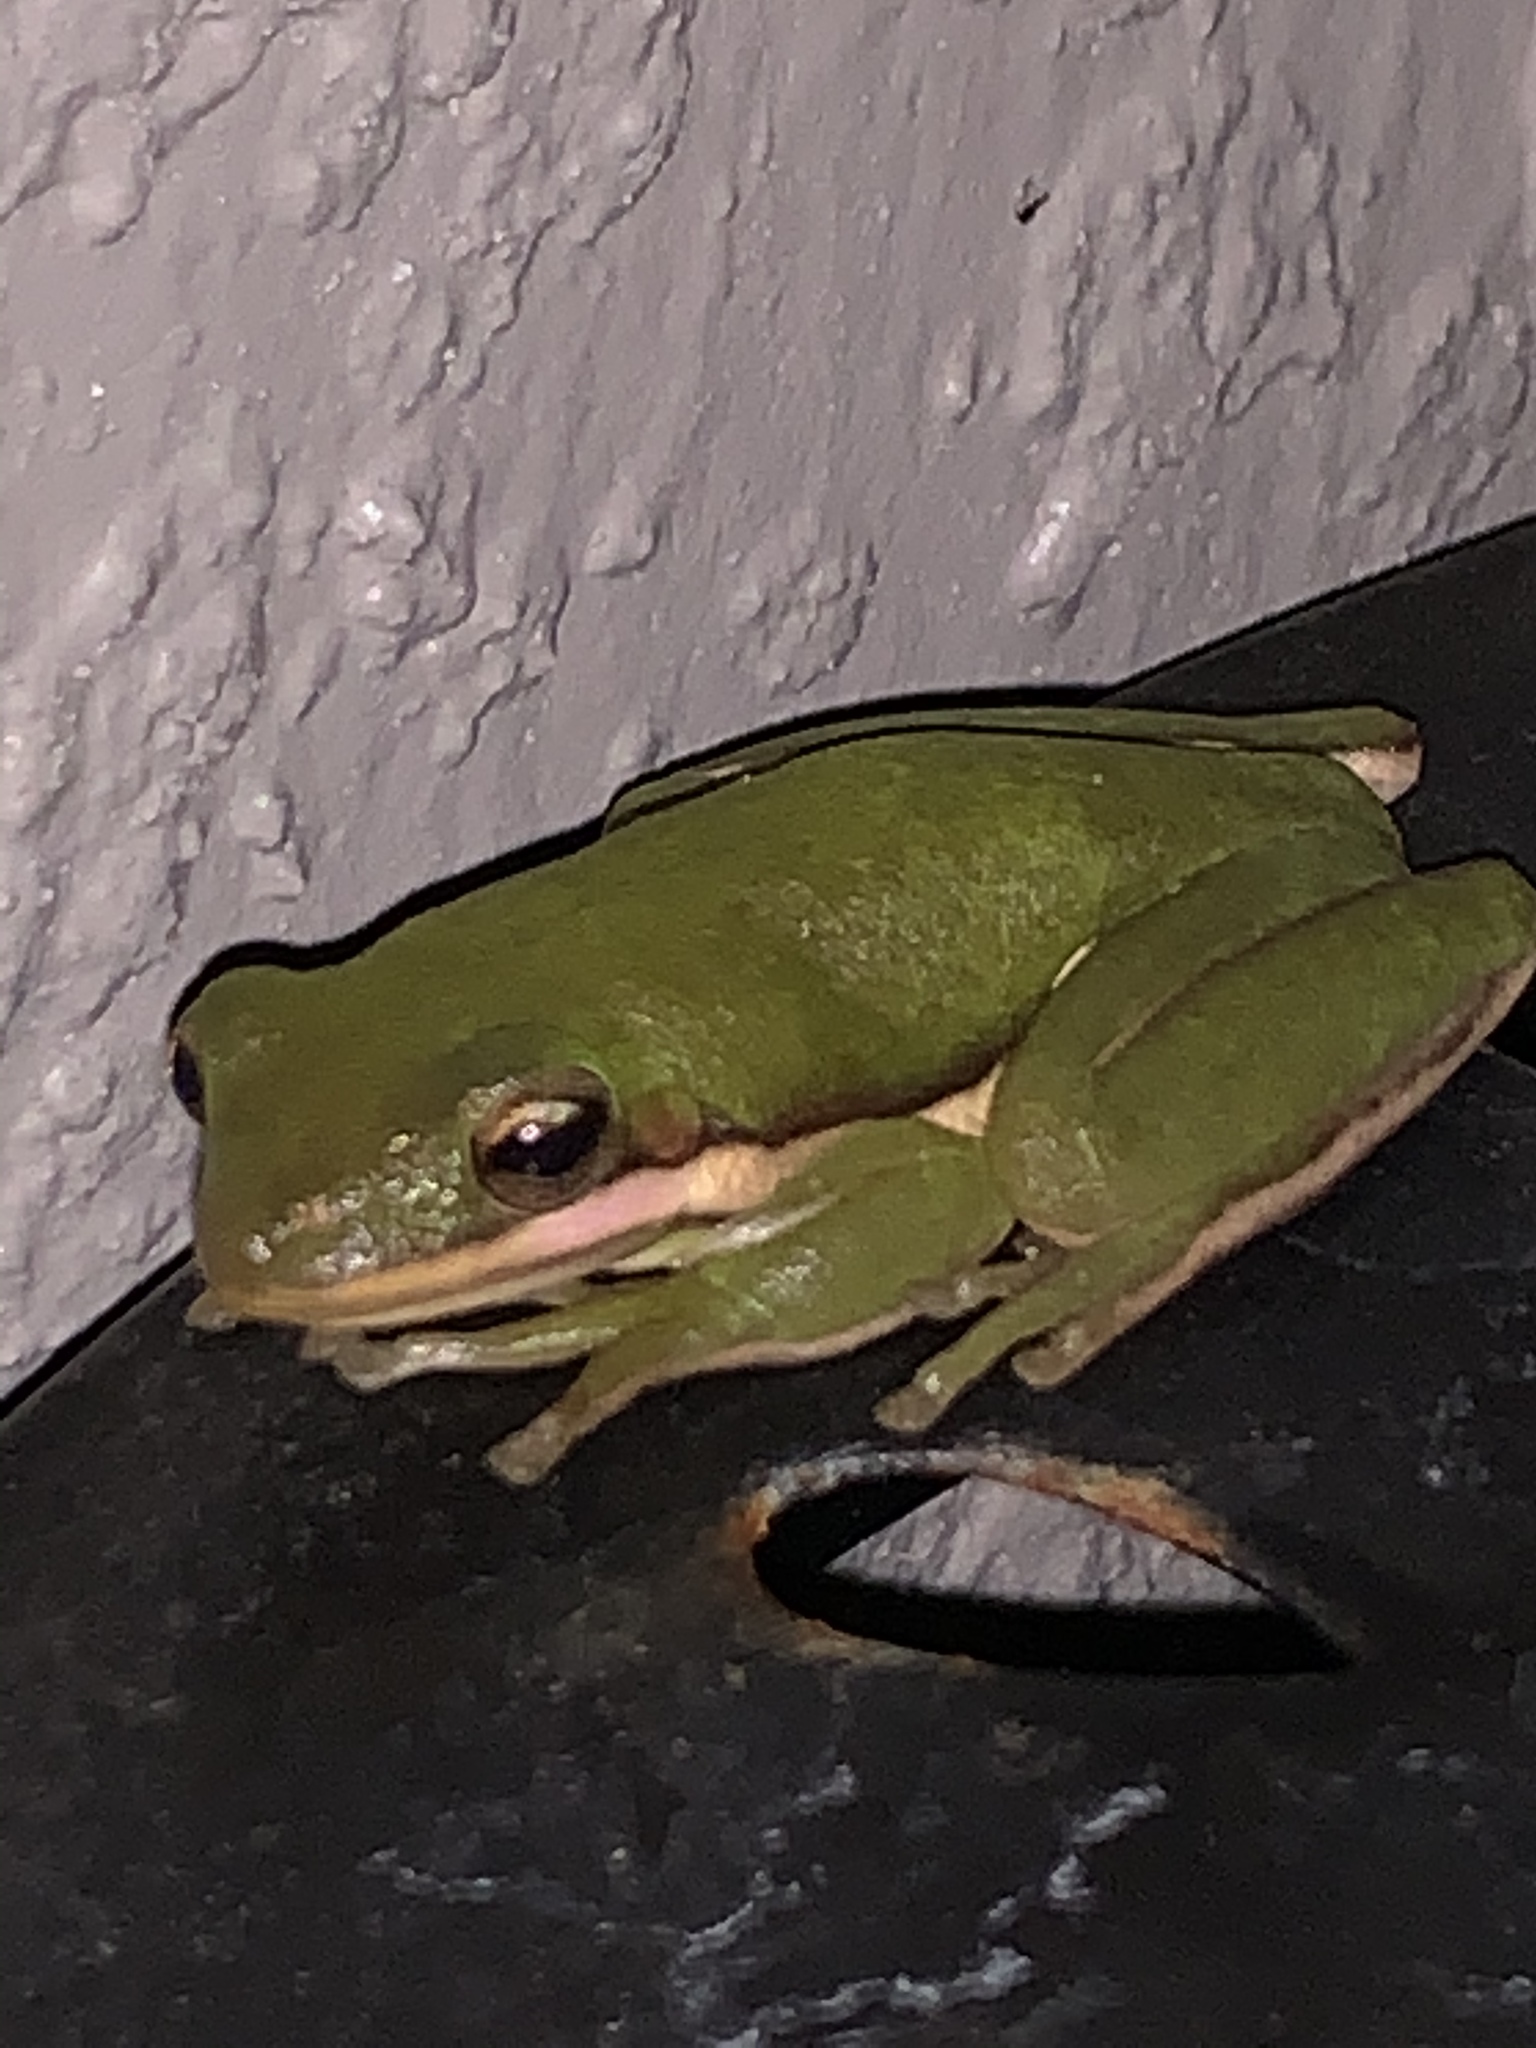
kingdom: Animalia
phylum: Chordata
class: Amphibia
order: Anura
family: Hylidae
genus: Dryophytes
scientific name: Dryophytes cinereus
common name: Green treefrog
